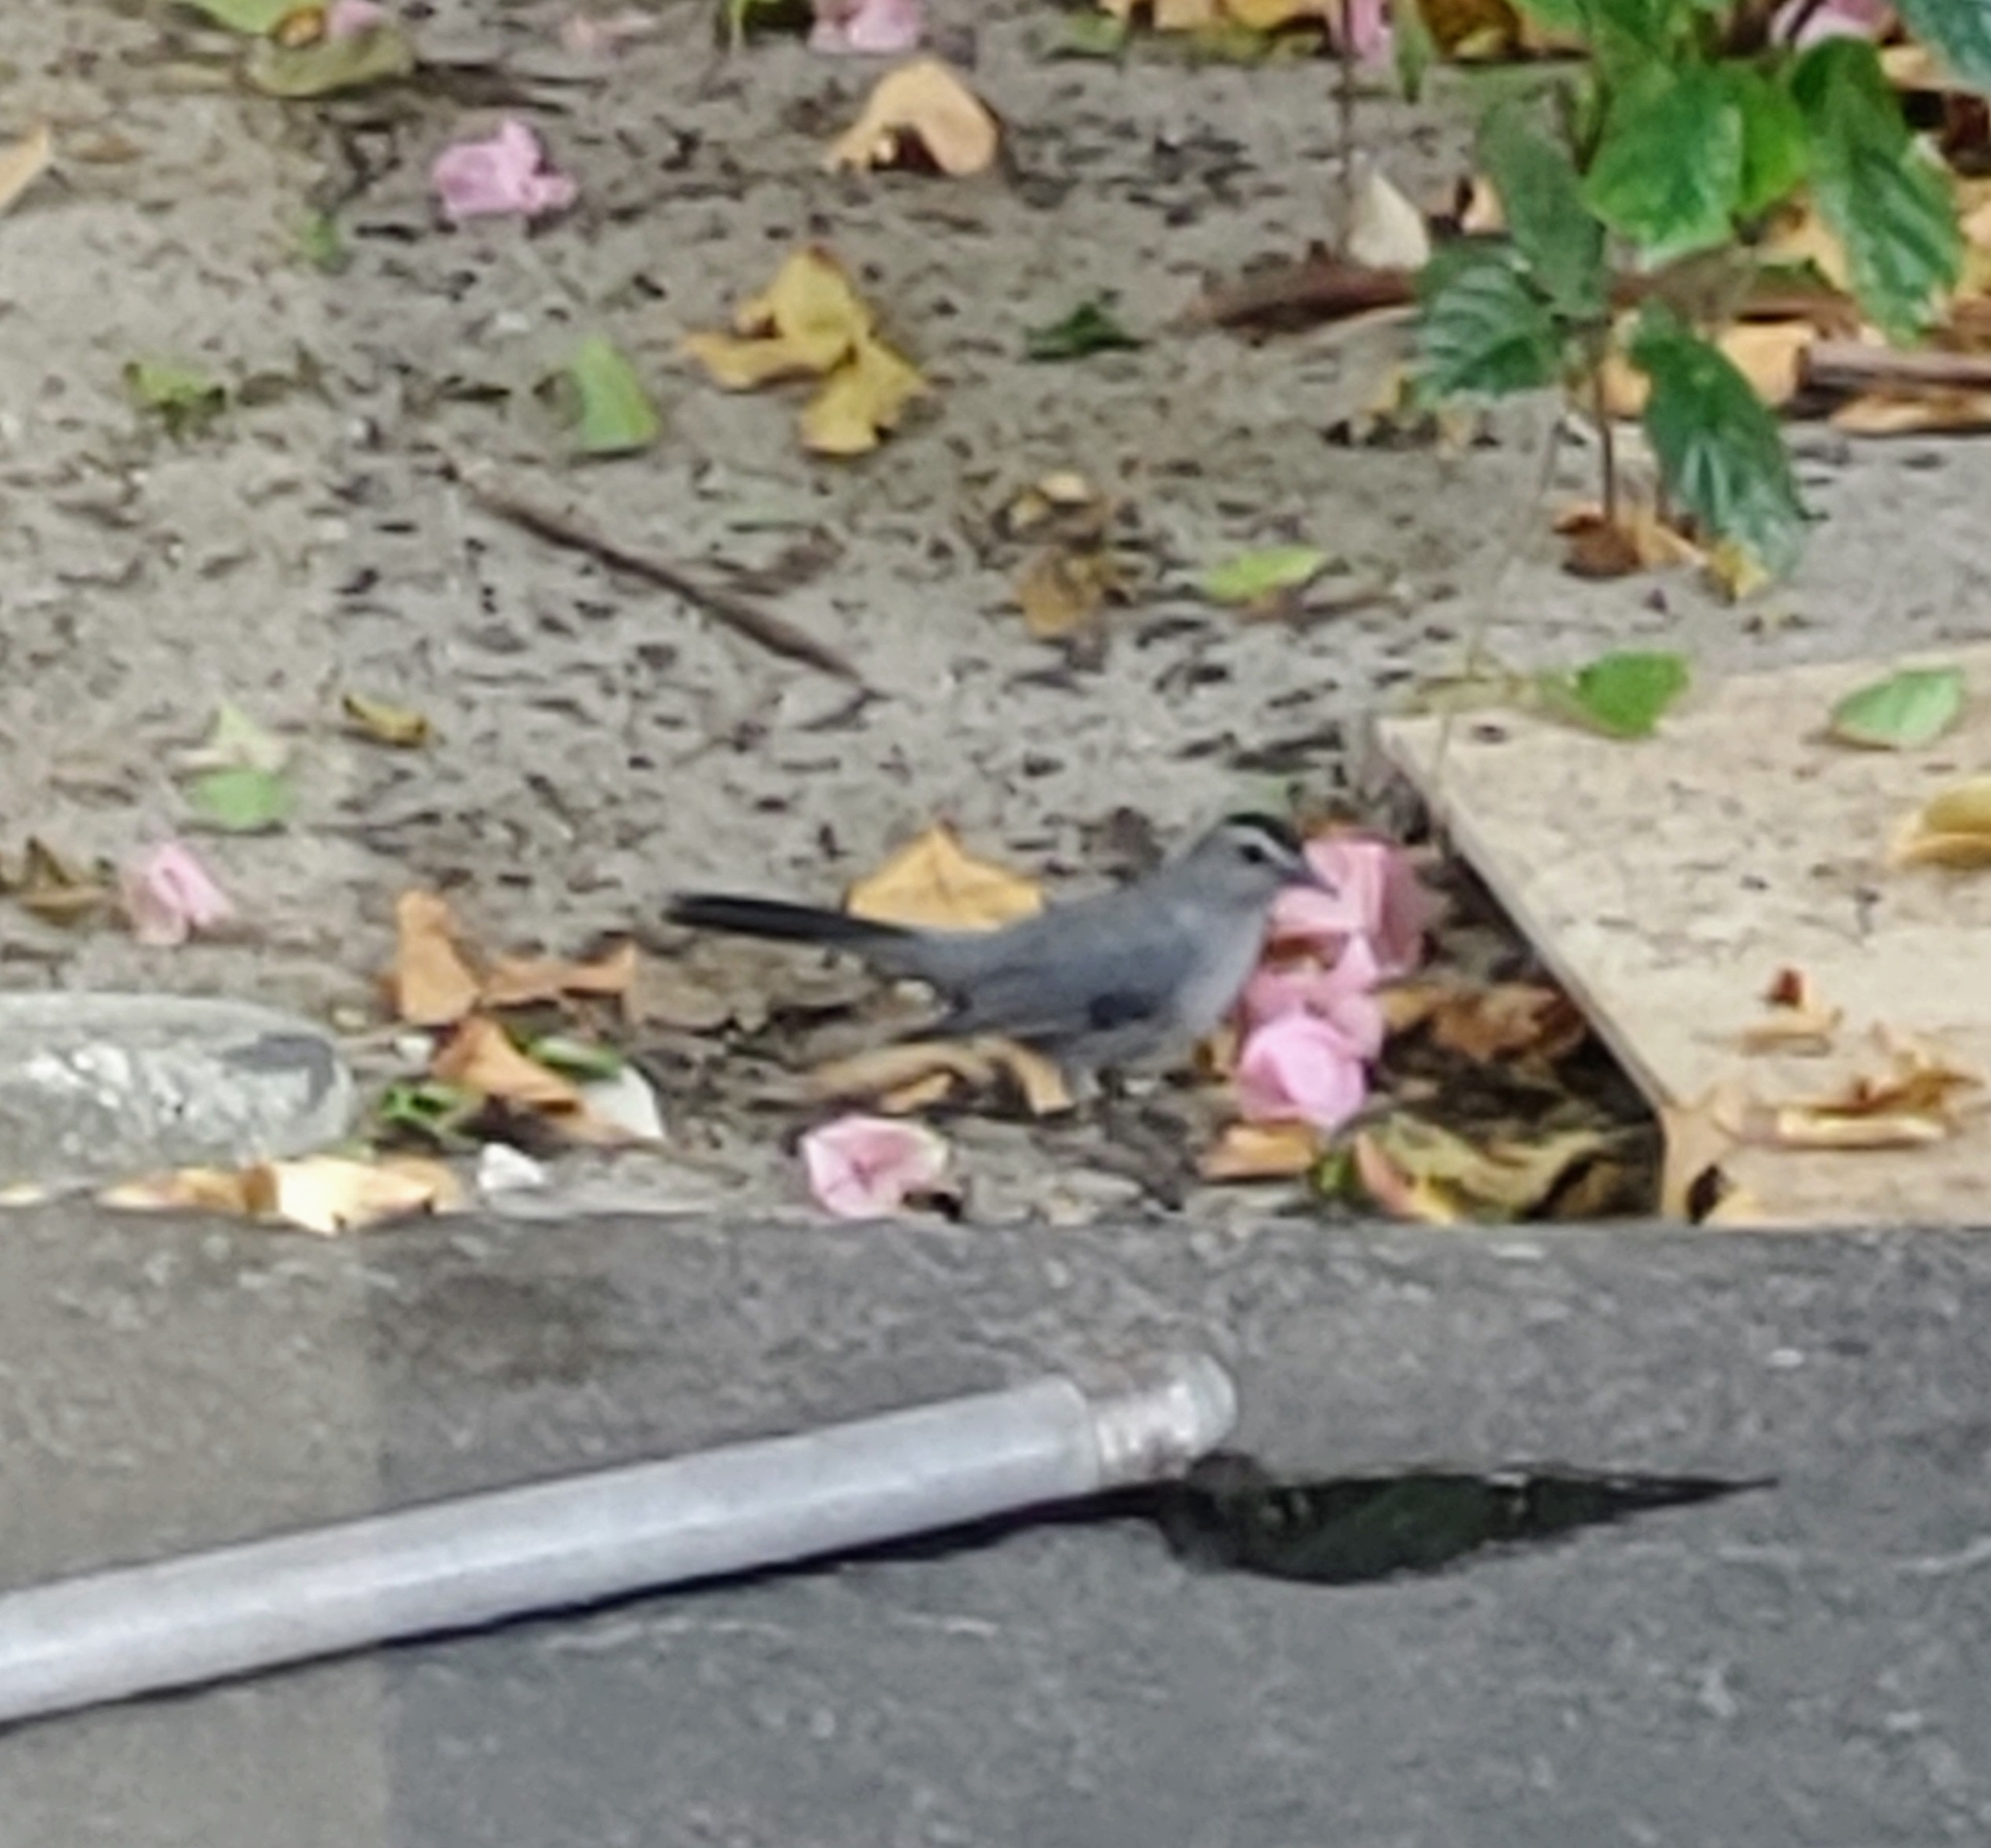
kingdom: Animalia
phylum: Chordata
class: Aves
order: Passeriformes
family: Mimidae
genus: Dumetella
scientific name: Dumetella carolinensis
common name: Gray catbird
